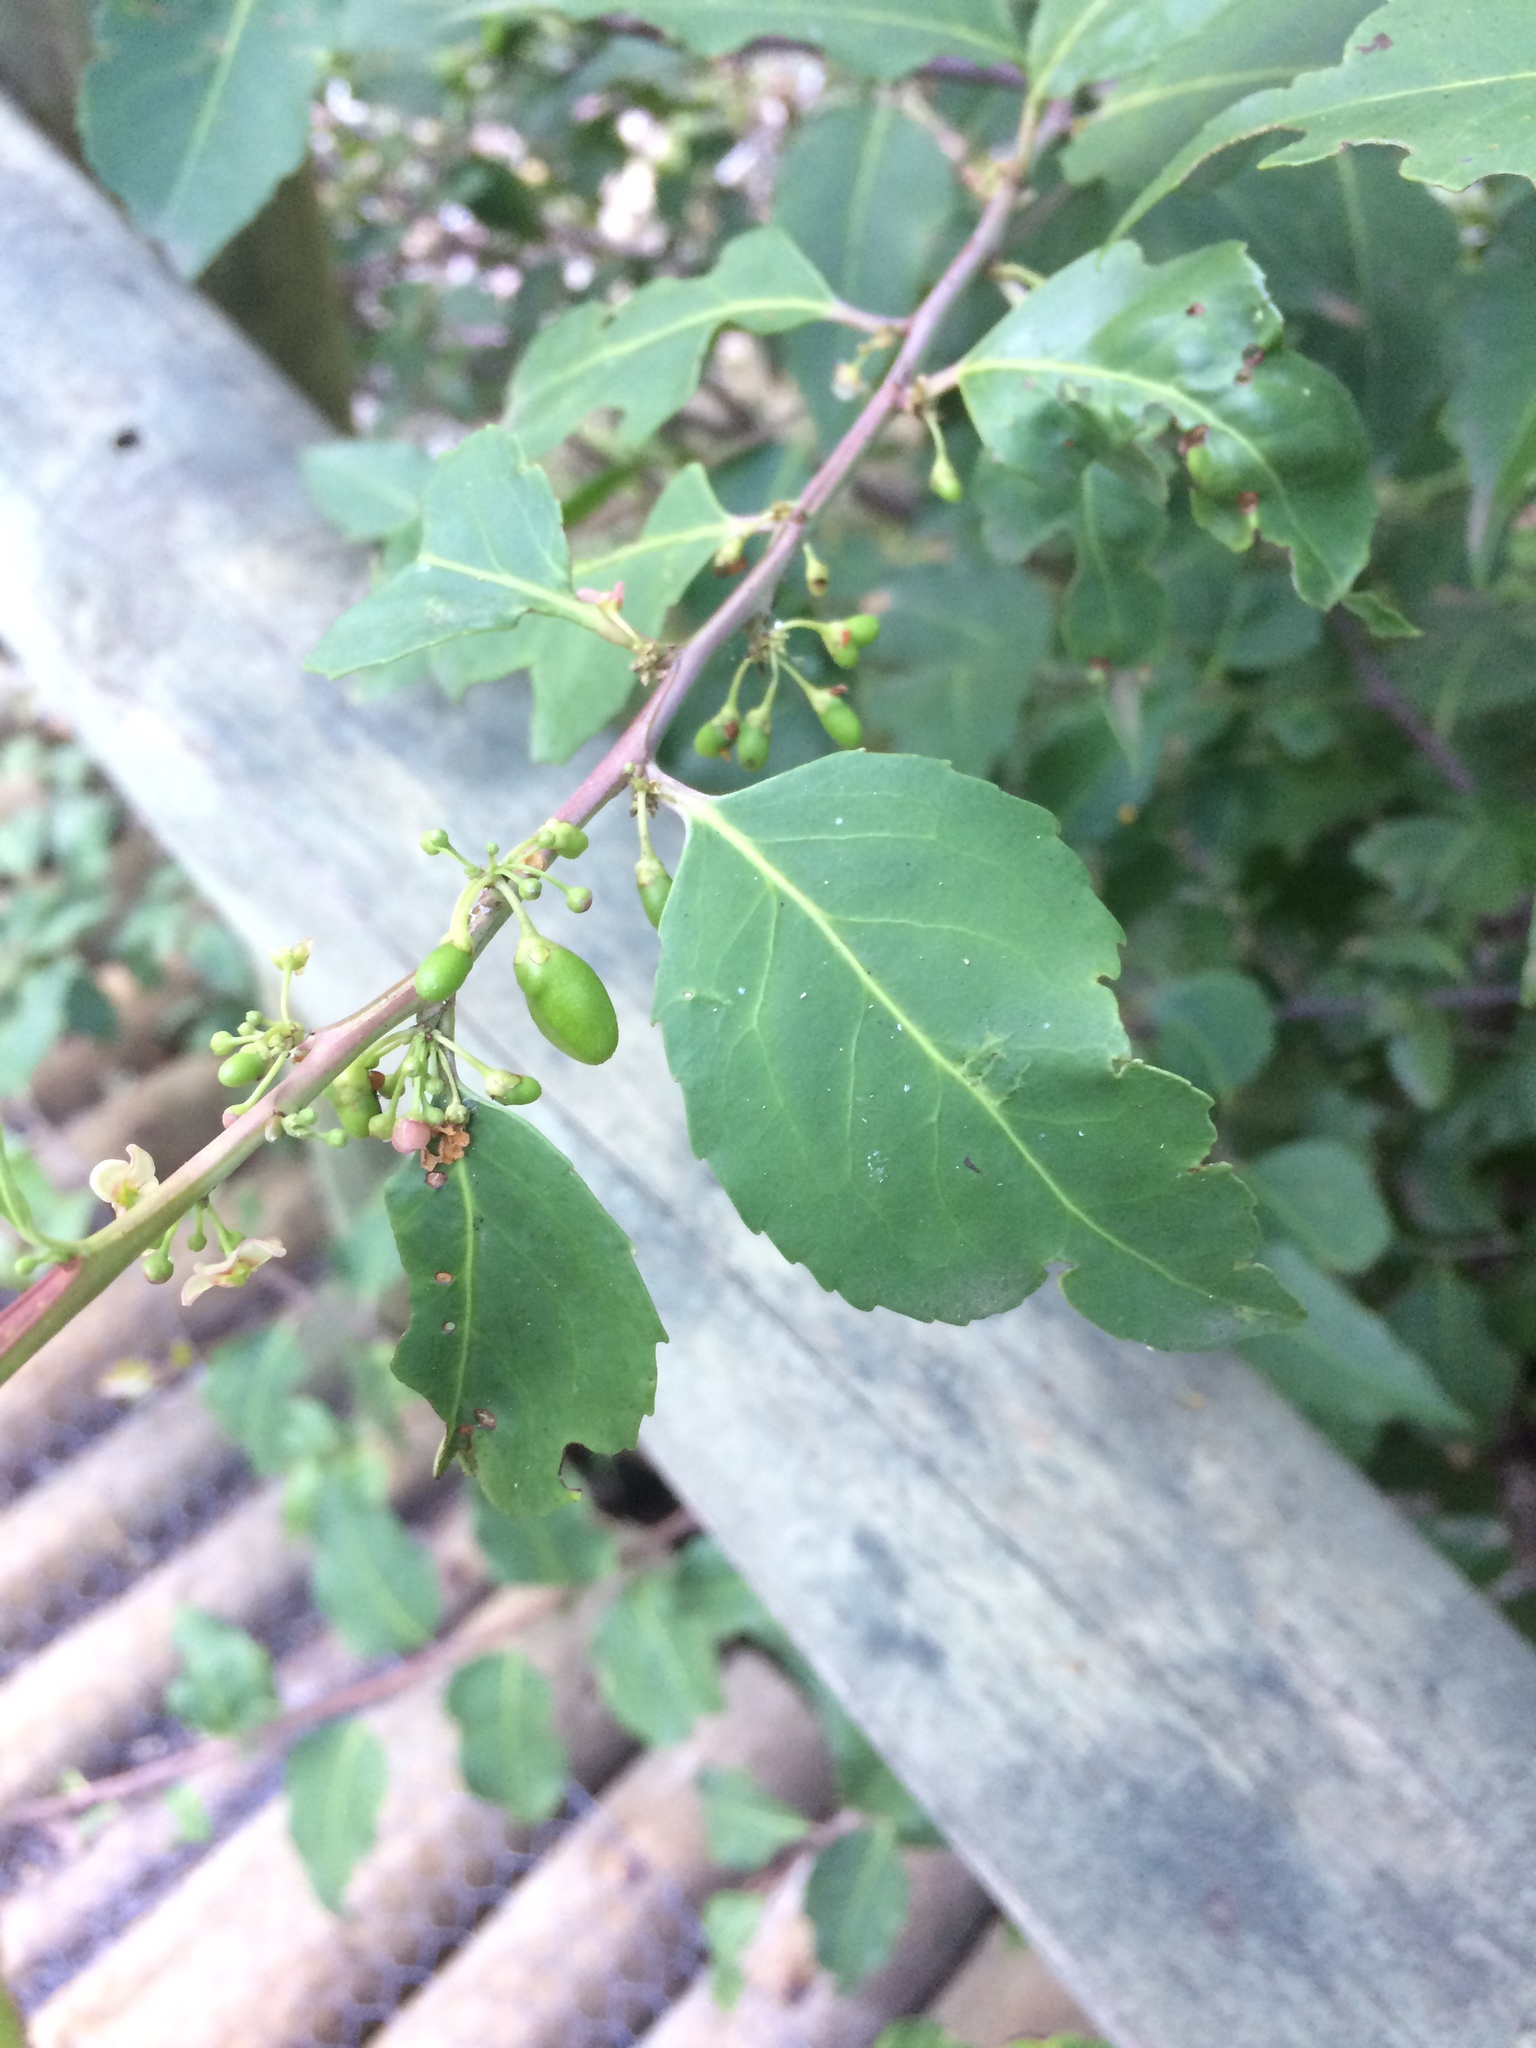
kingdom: Plantae
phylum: Tracheophyta
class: Magnoliopsida
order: Celastrales
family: Celastraceae
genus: Gymnosporia
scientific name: Gymnosporia acuminata
